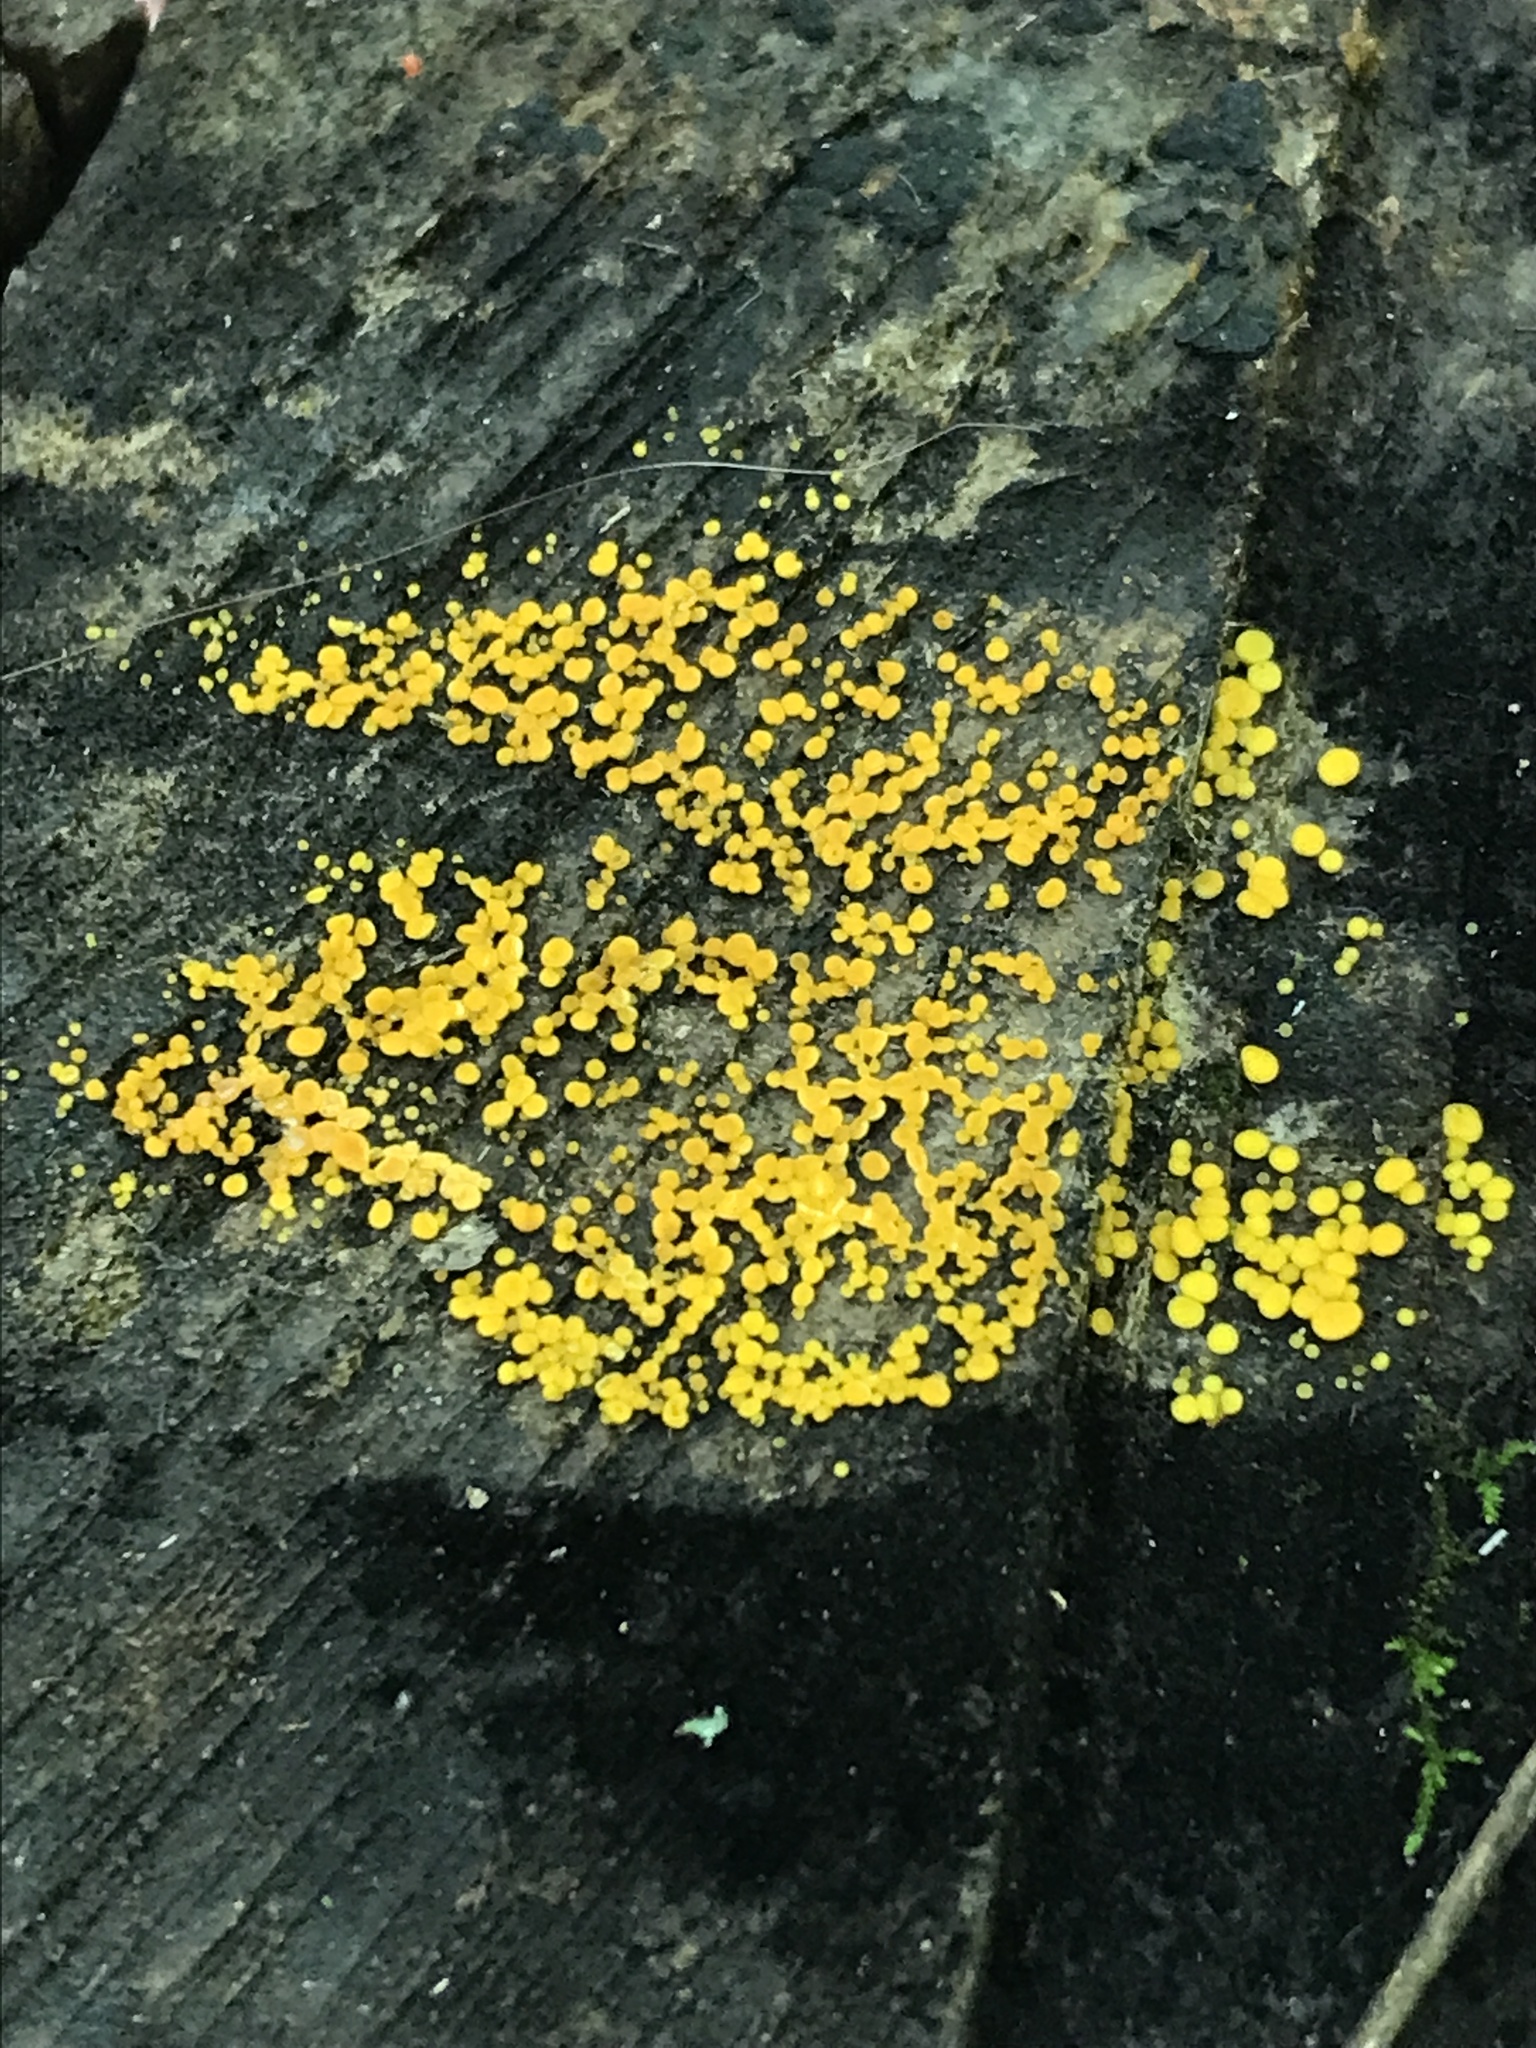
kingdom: Fungi
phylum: Ascomycota
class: Leotiomycetes
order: Helotiales
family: Pezizellaceae
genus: Calycina
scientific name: Calycina citrina
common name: Yellow fairy cups
